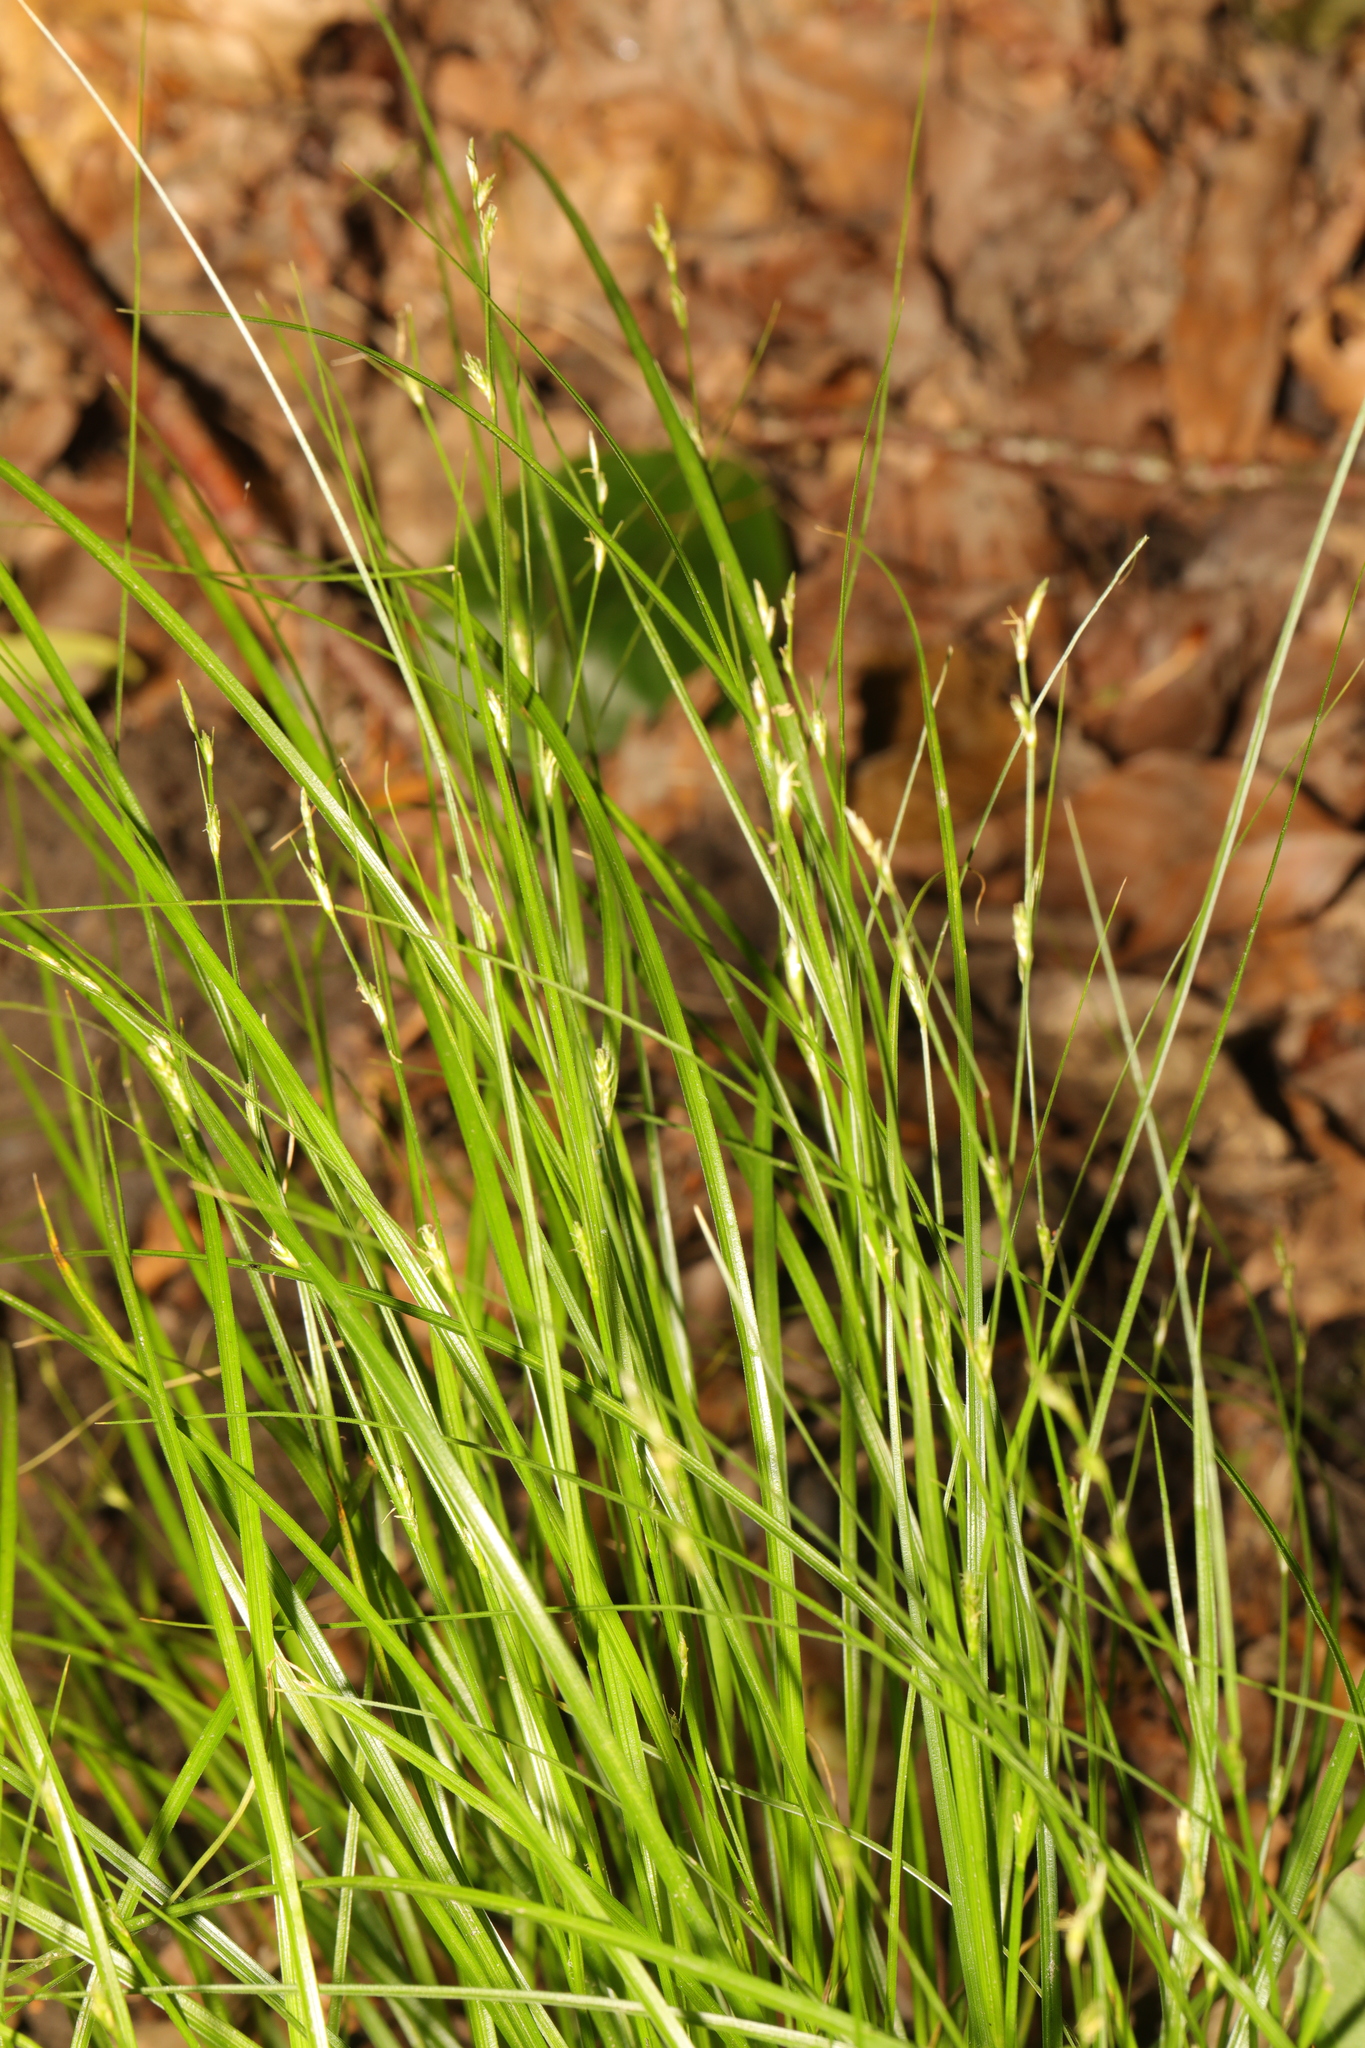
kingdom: Plantae
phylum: Tracheophyta
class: Liliopsida
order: Poales
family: Cyperaceae
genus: Carex
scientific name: Carex remota
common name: Remote sedge
